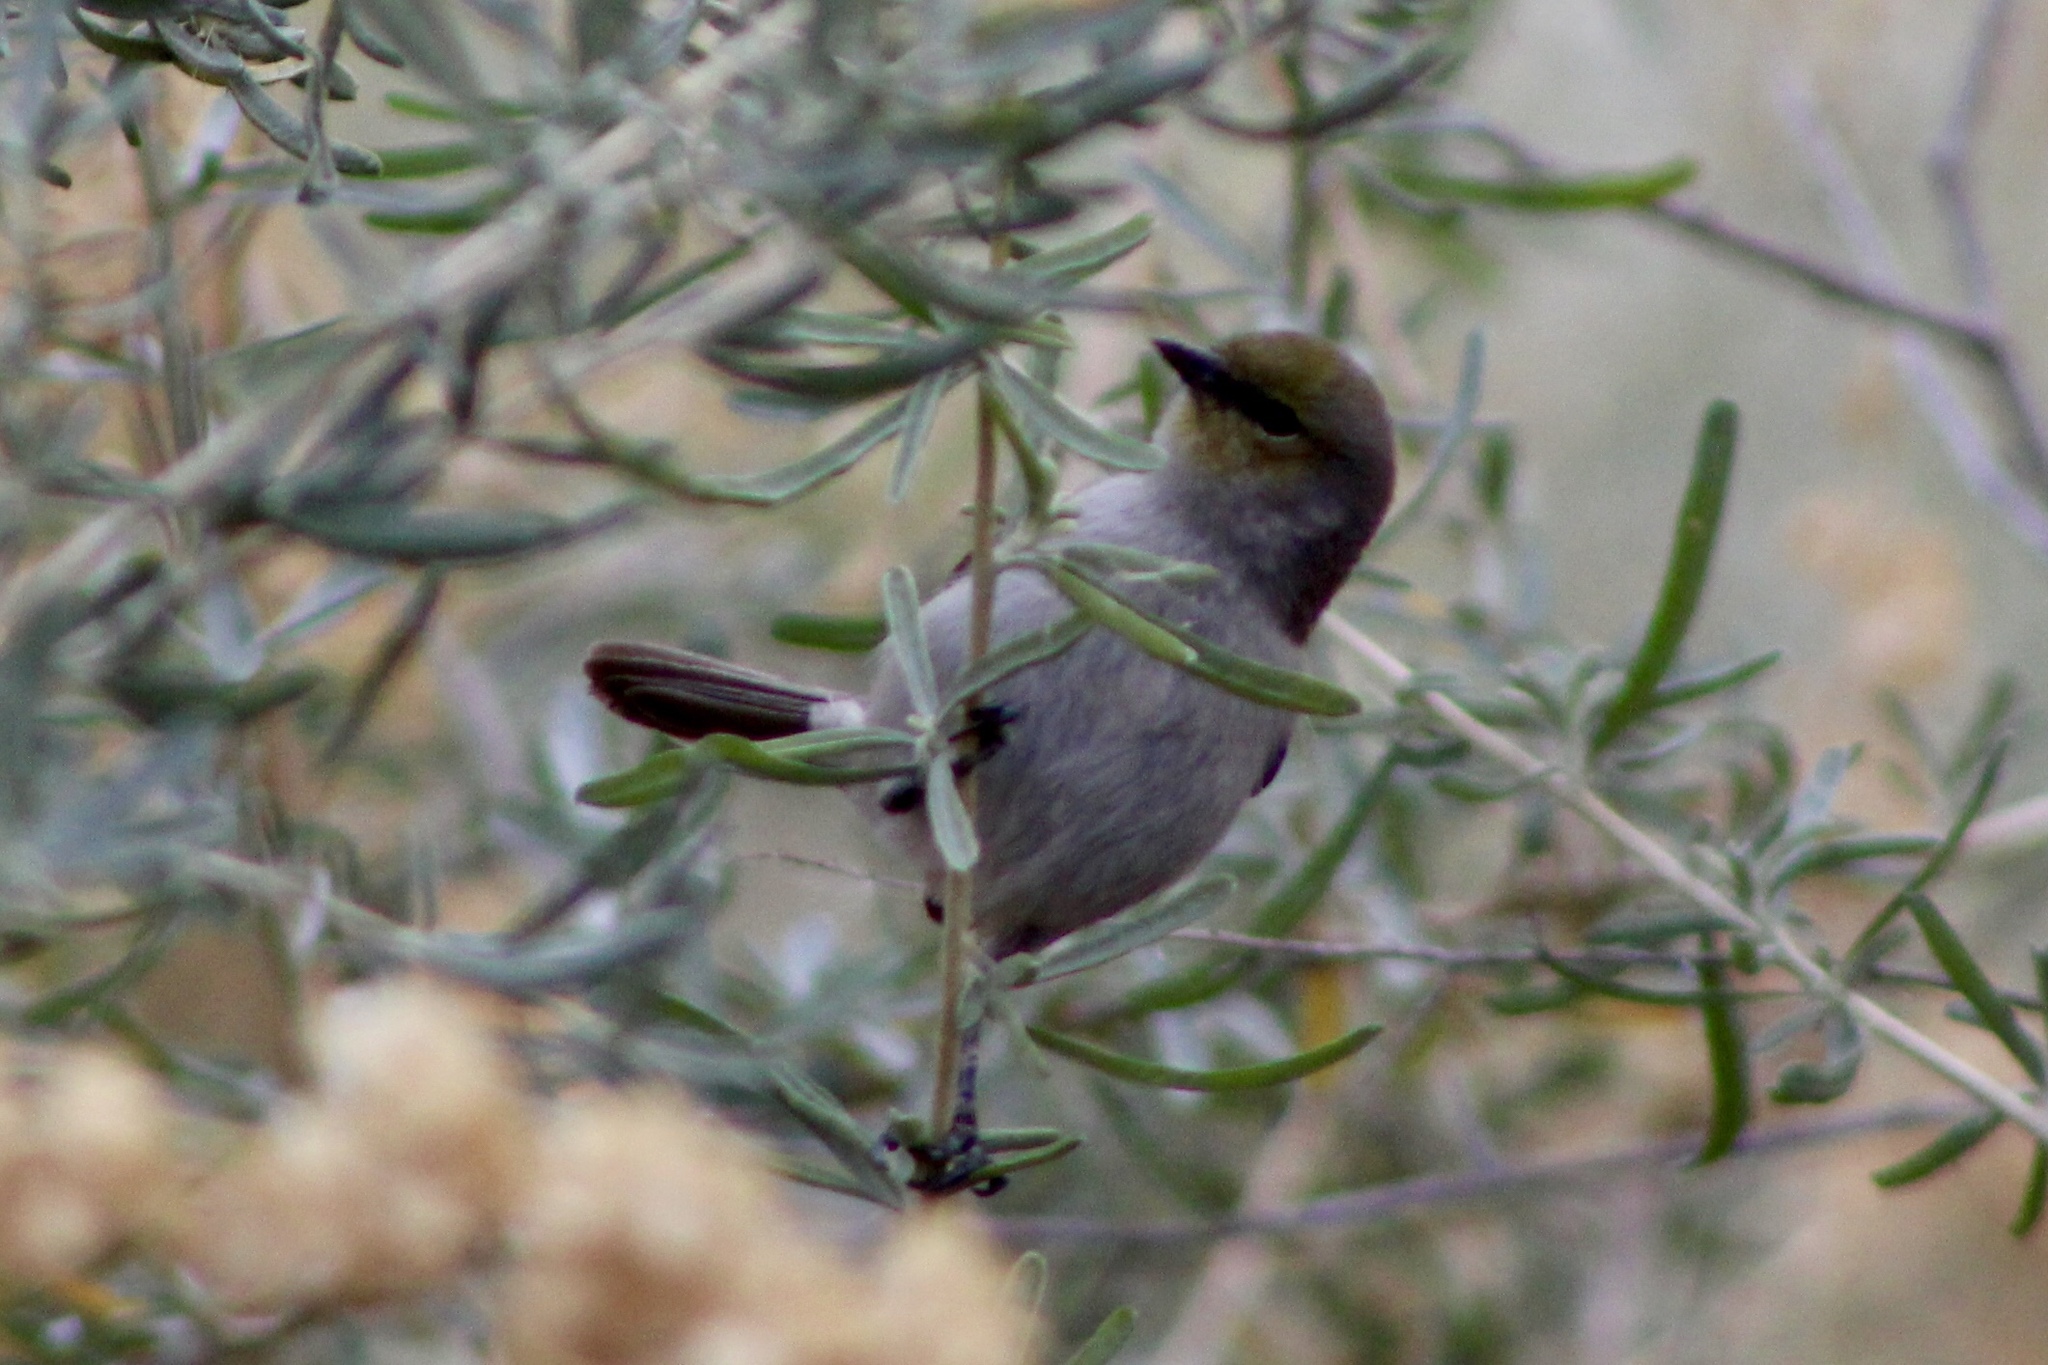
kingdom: Animalia
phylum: Chordata
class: Aves
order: Passeriformes
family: Remizidae
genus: Auriparus
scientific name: Auriparus flaviceps
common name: Verdin
